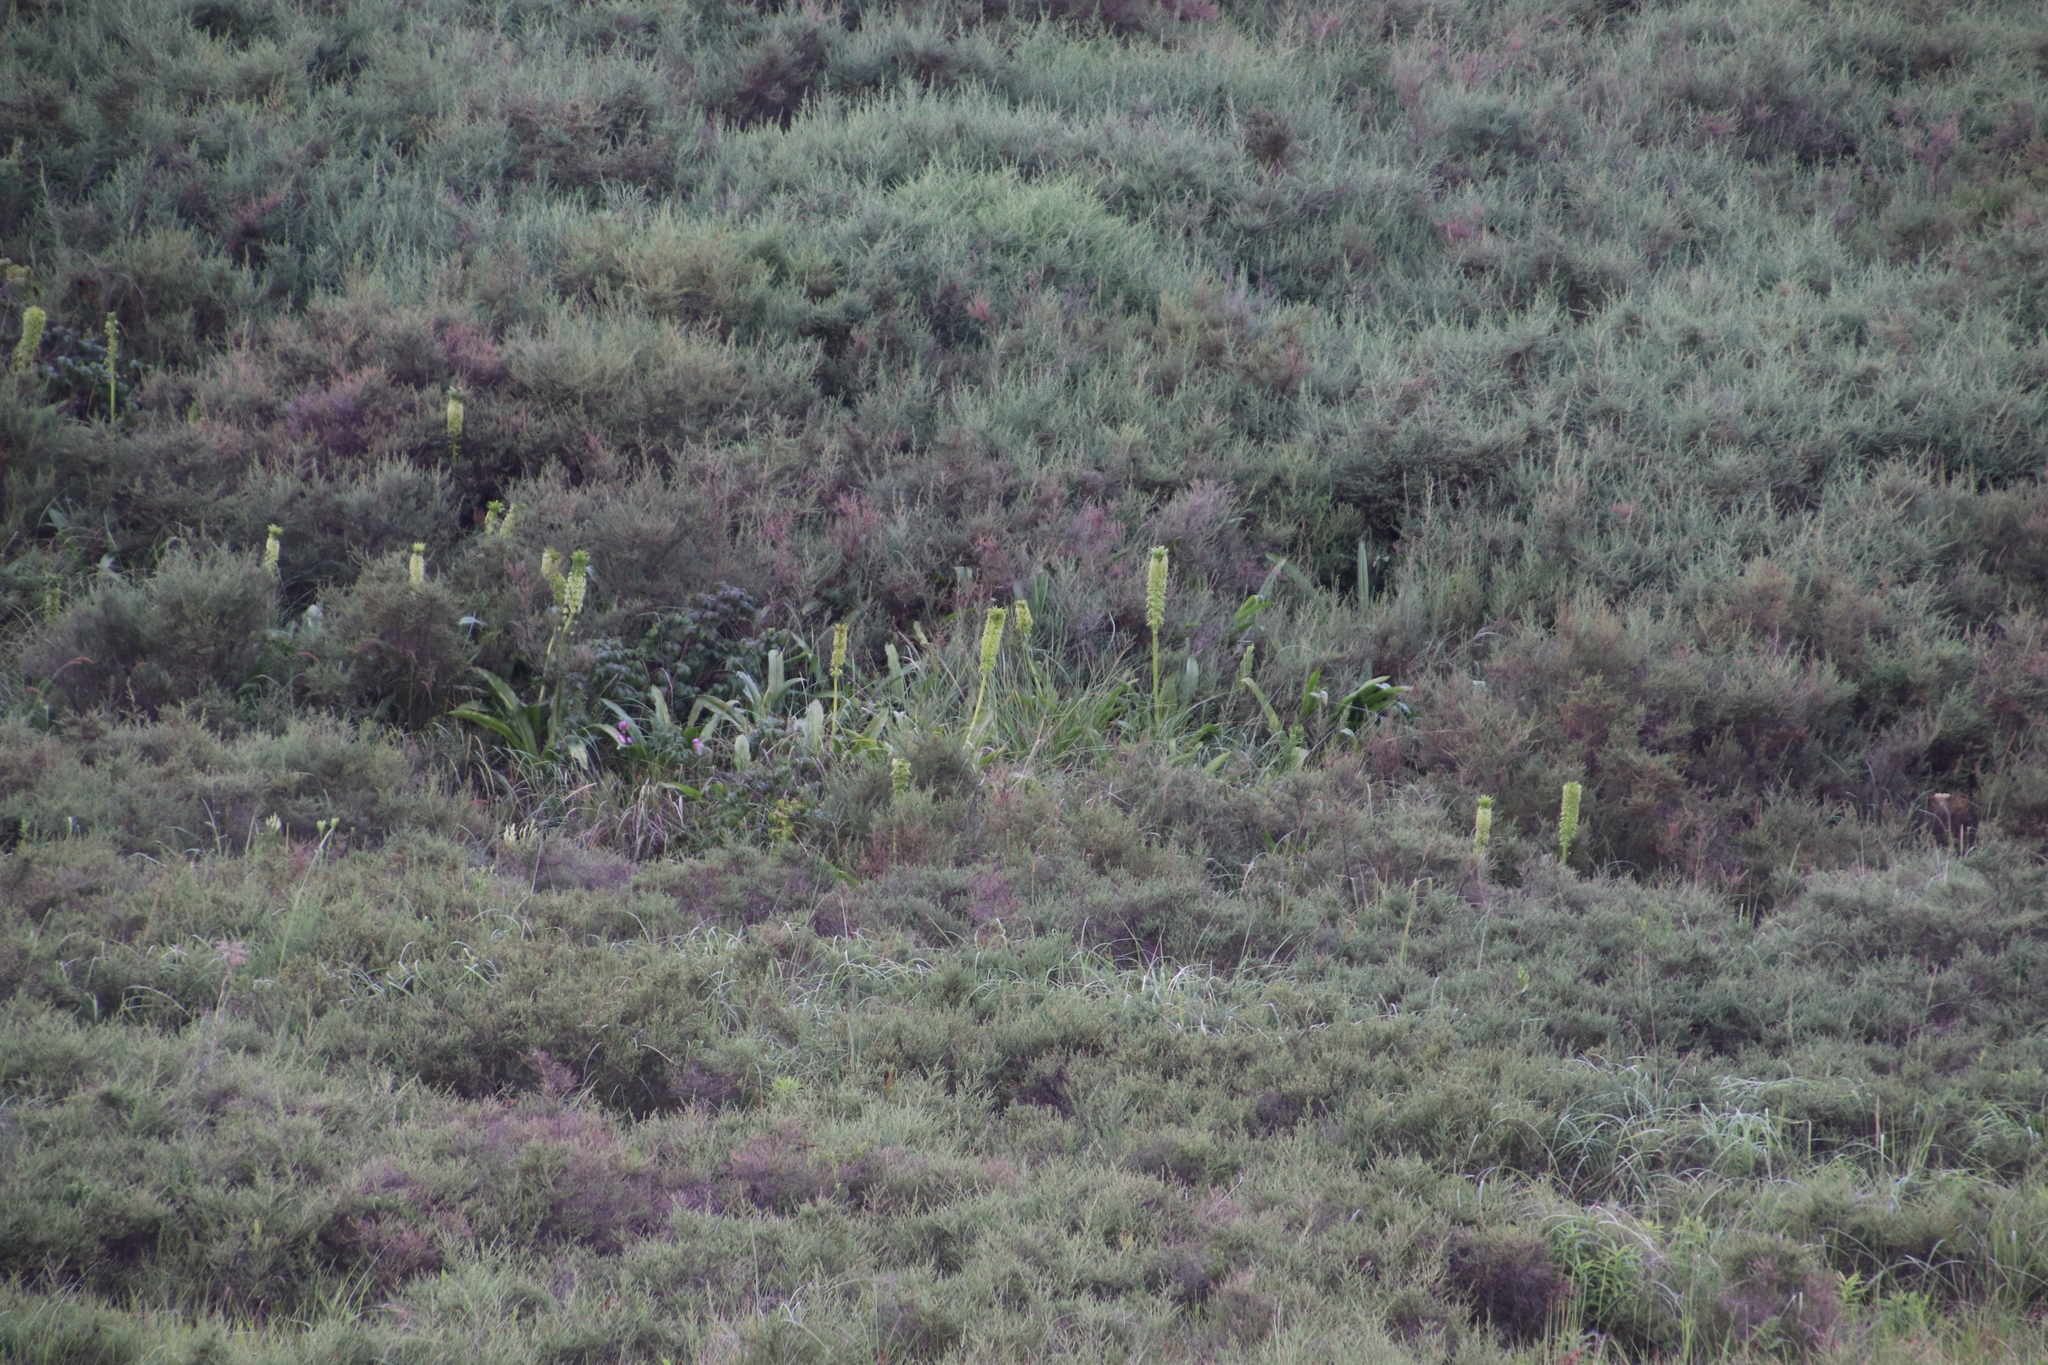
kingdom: Plantae
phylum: Tracheophyta
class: Liliopsida
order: Asparagales
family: Asparagaceae
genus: Eucomis
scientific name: Eucomis autumnalis
